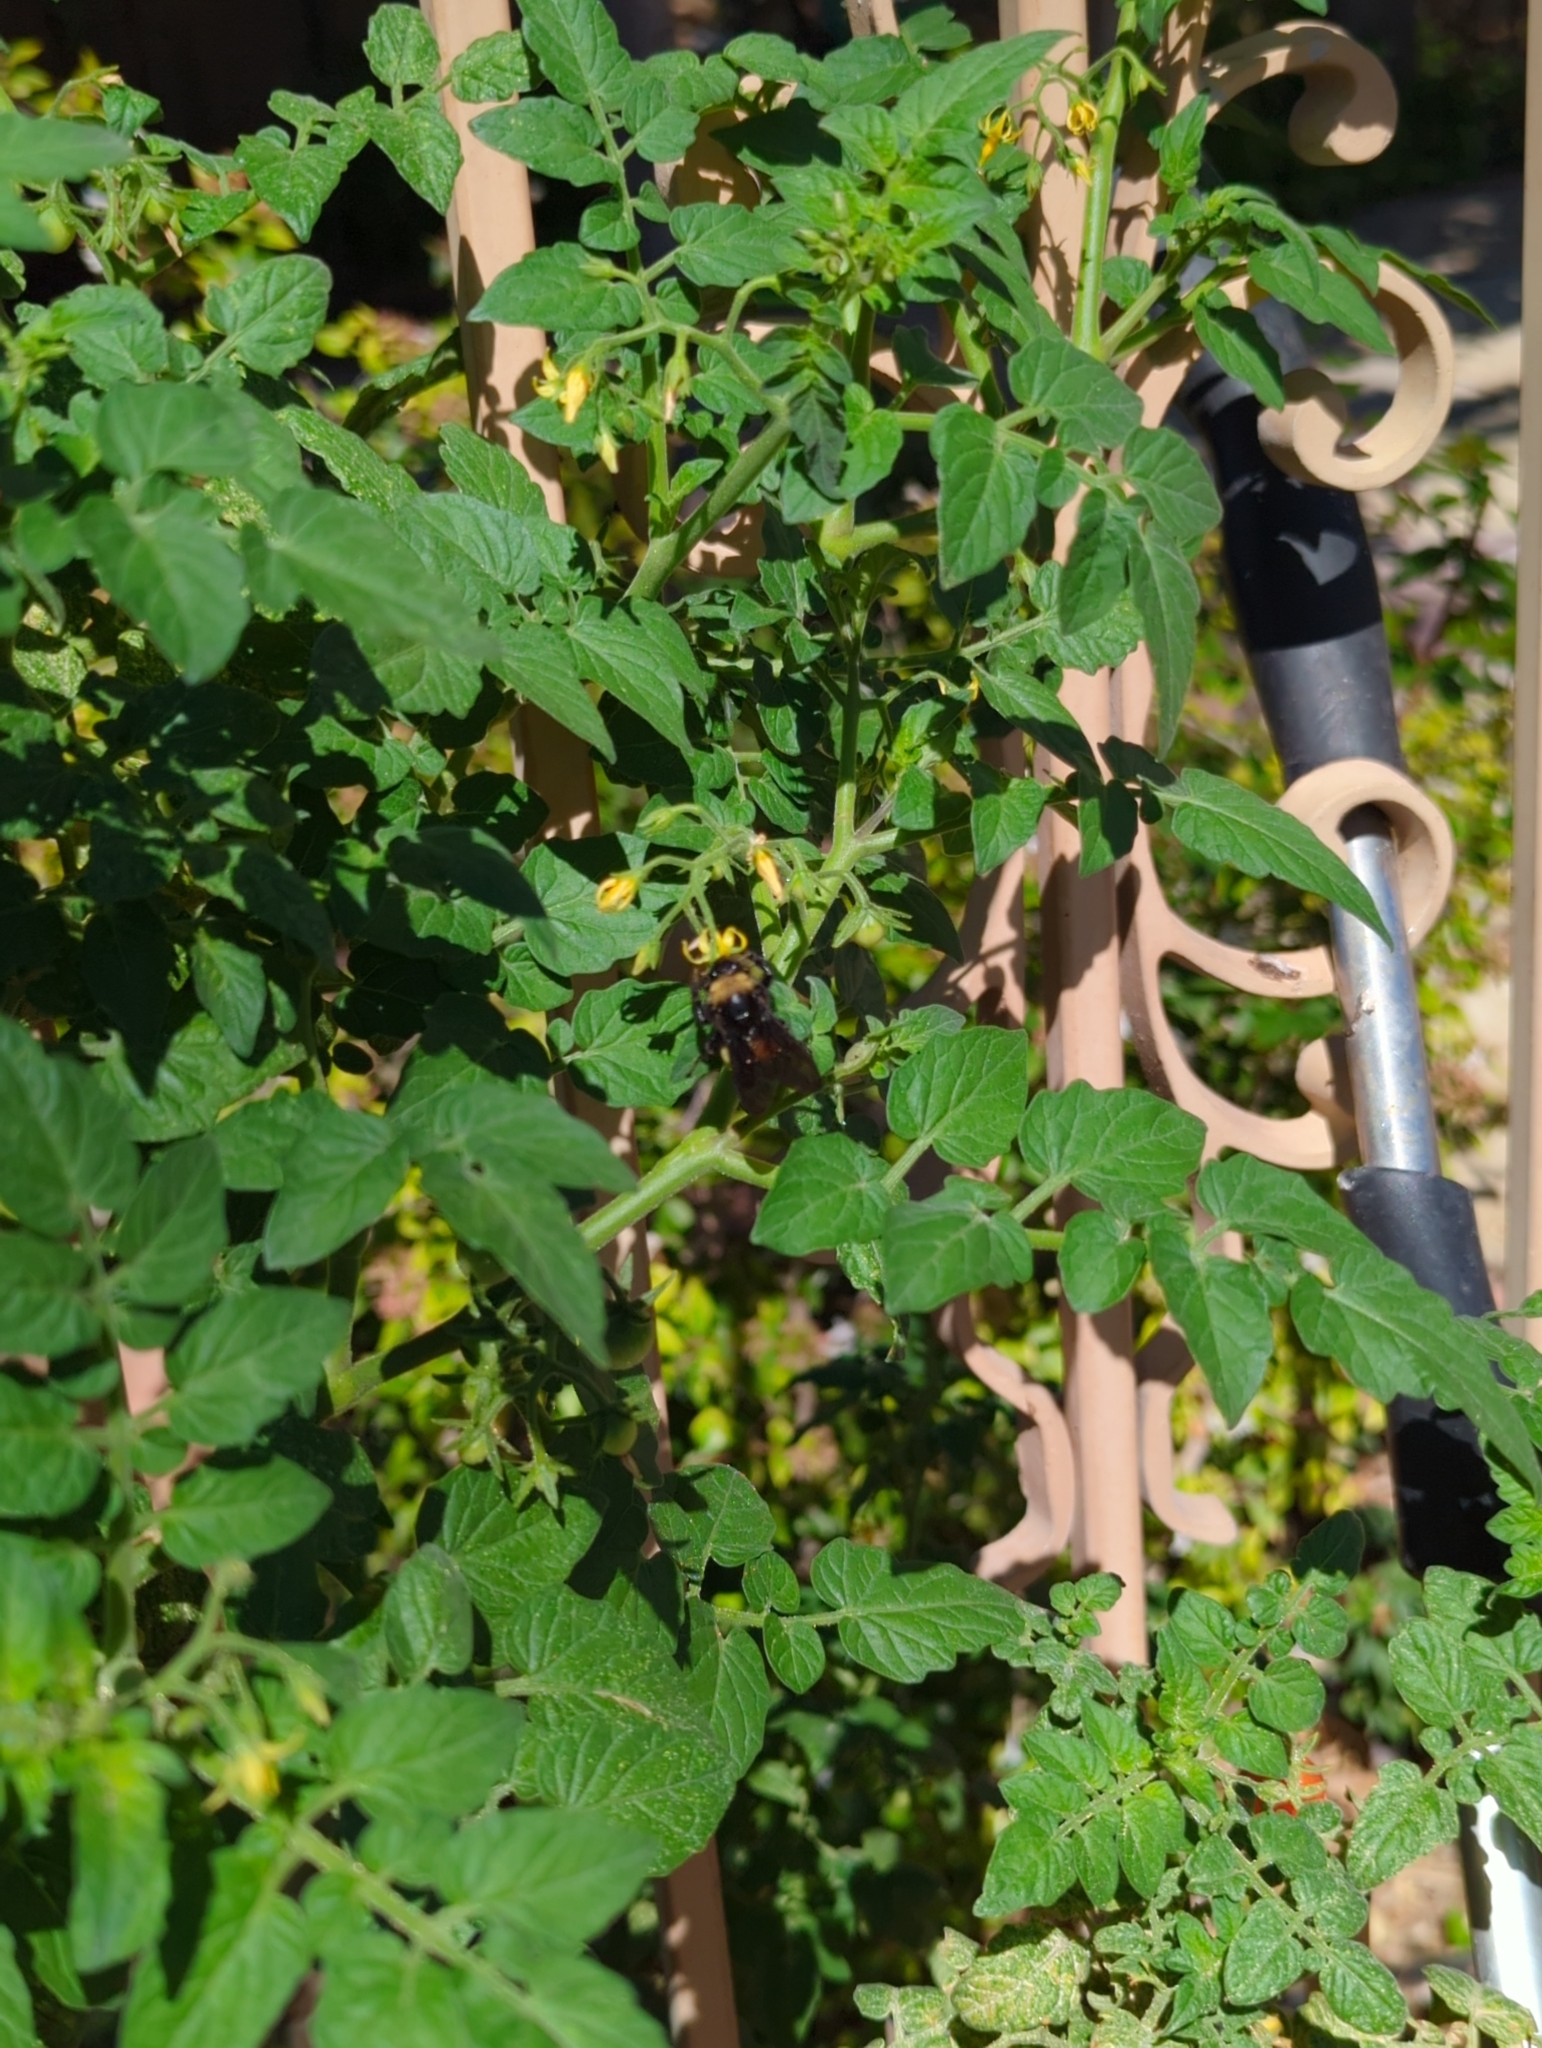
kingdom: Animalia
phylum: Arthropoda
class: Insecta
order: Hymenoptera
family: Apidae
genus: Bombus
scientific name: Bombus pensylvanicus
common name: Bumble bee
